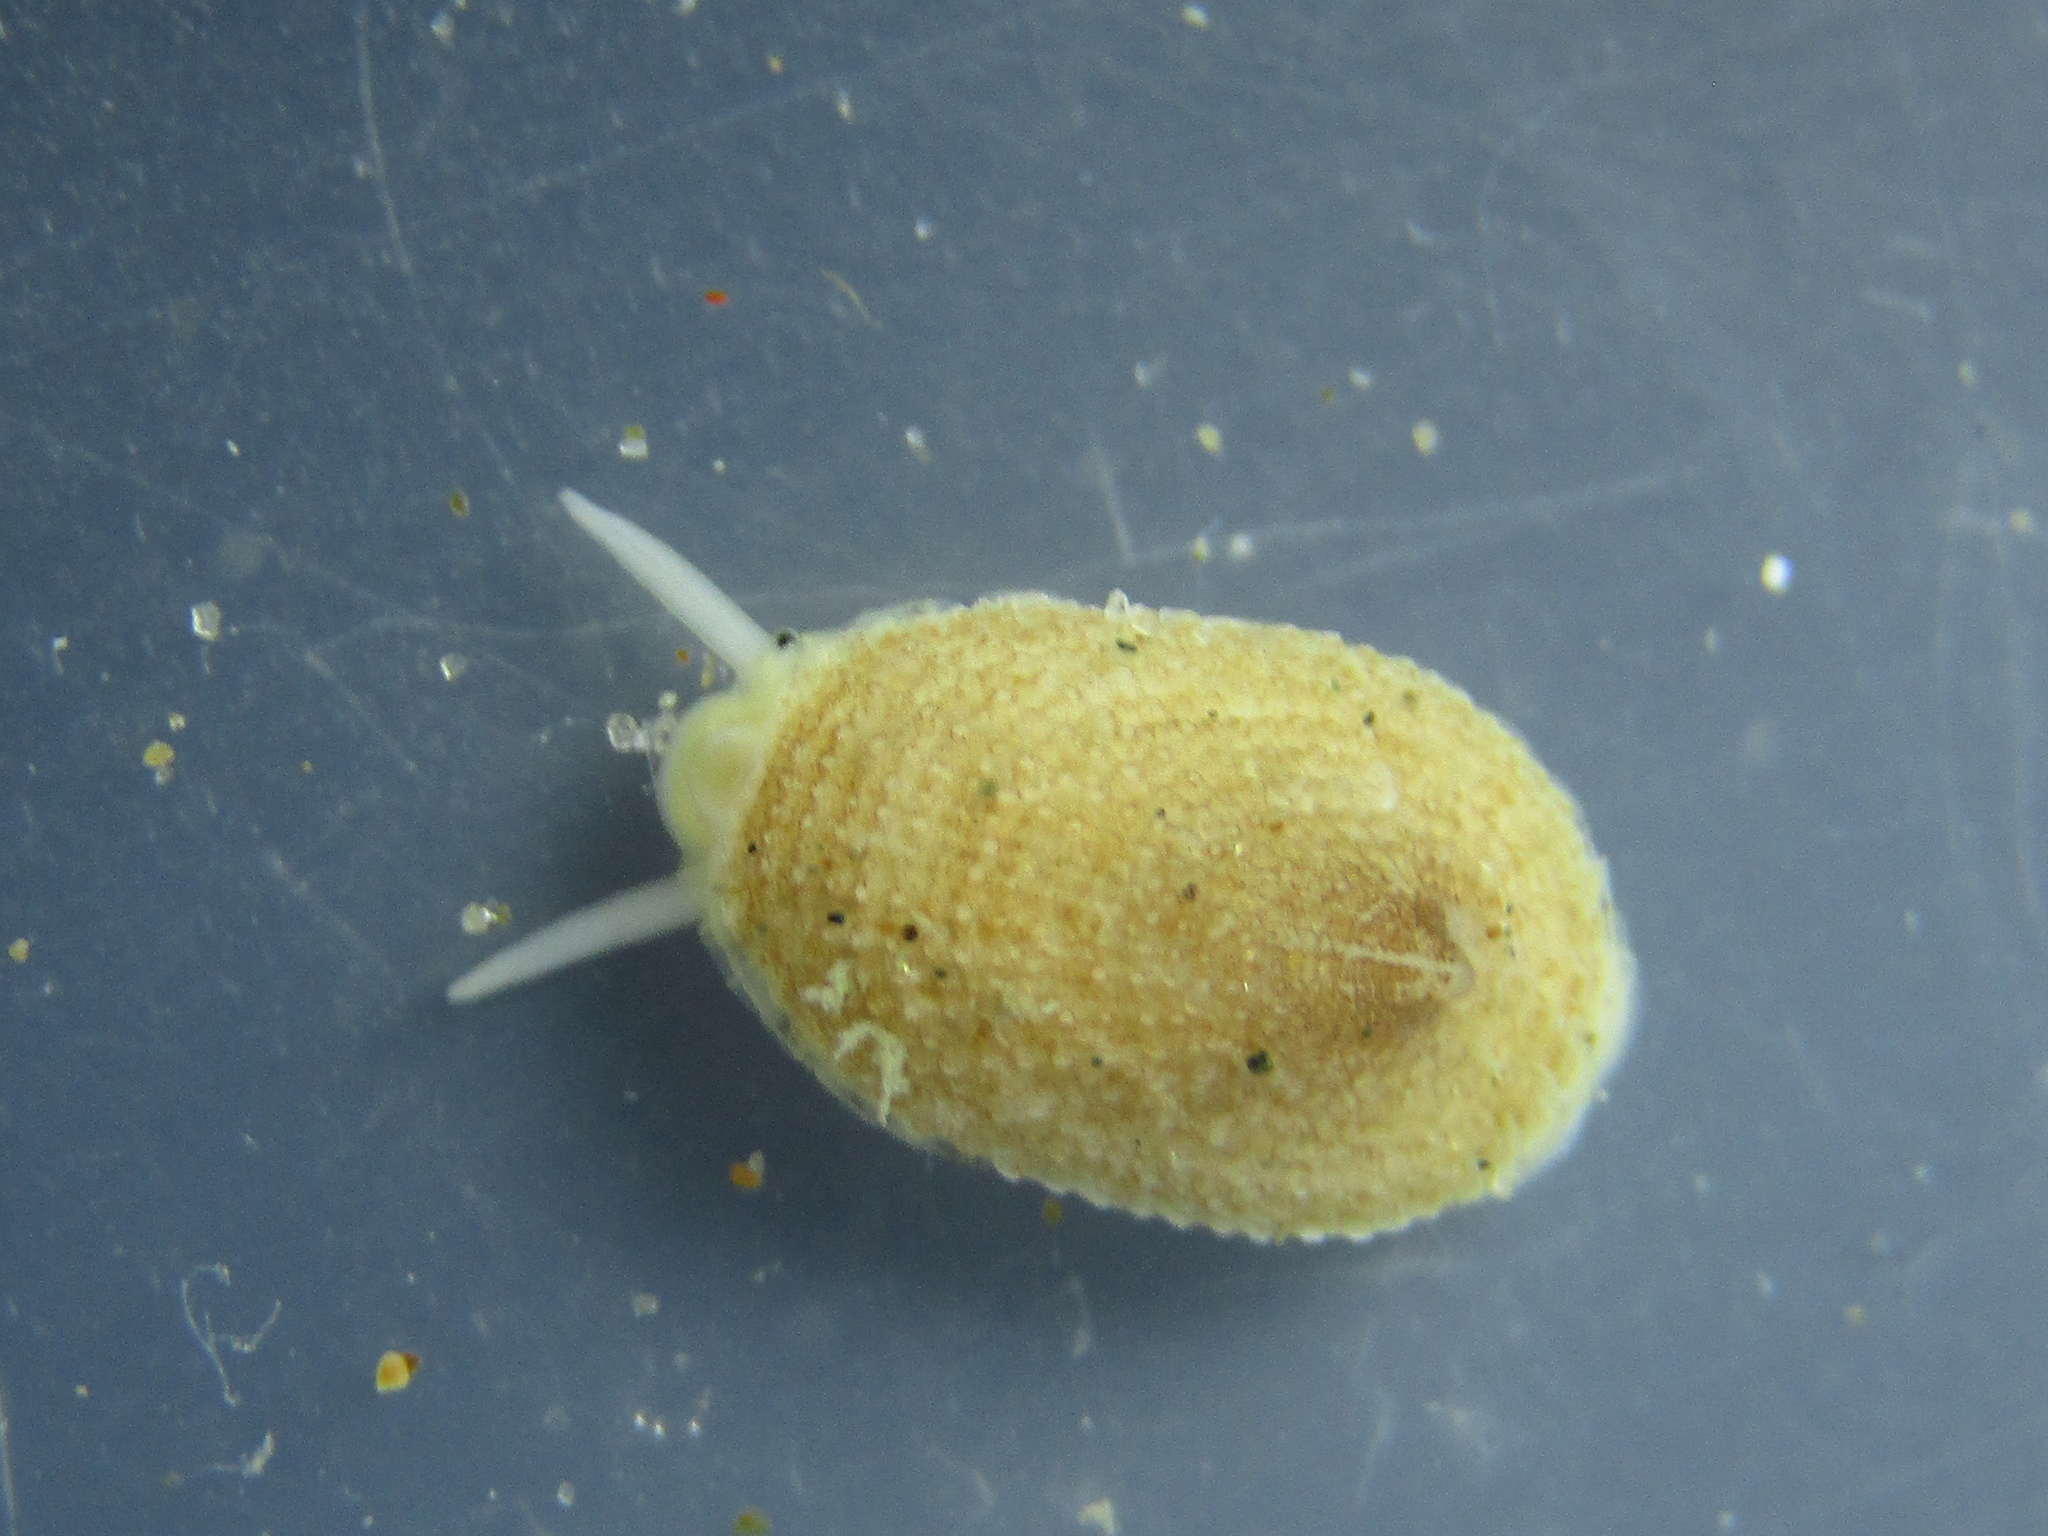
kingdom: Animalia
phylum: Mollusca
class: Gastropoda
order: Lepetellida
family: Fissurellidae
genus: Tugali
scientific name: Tugali suteri
